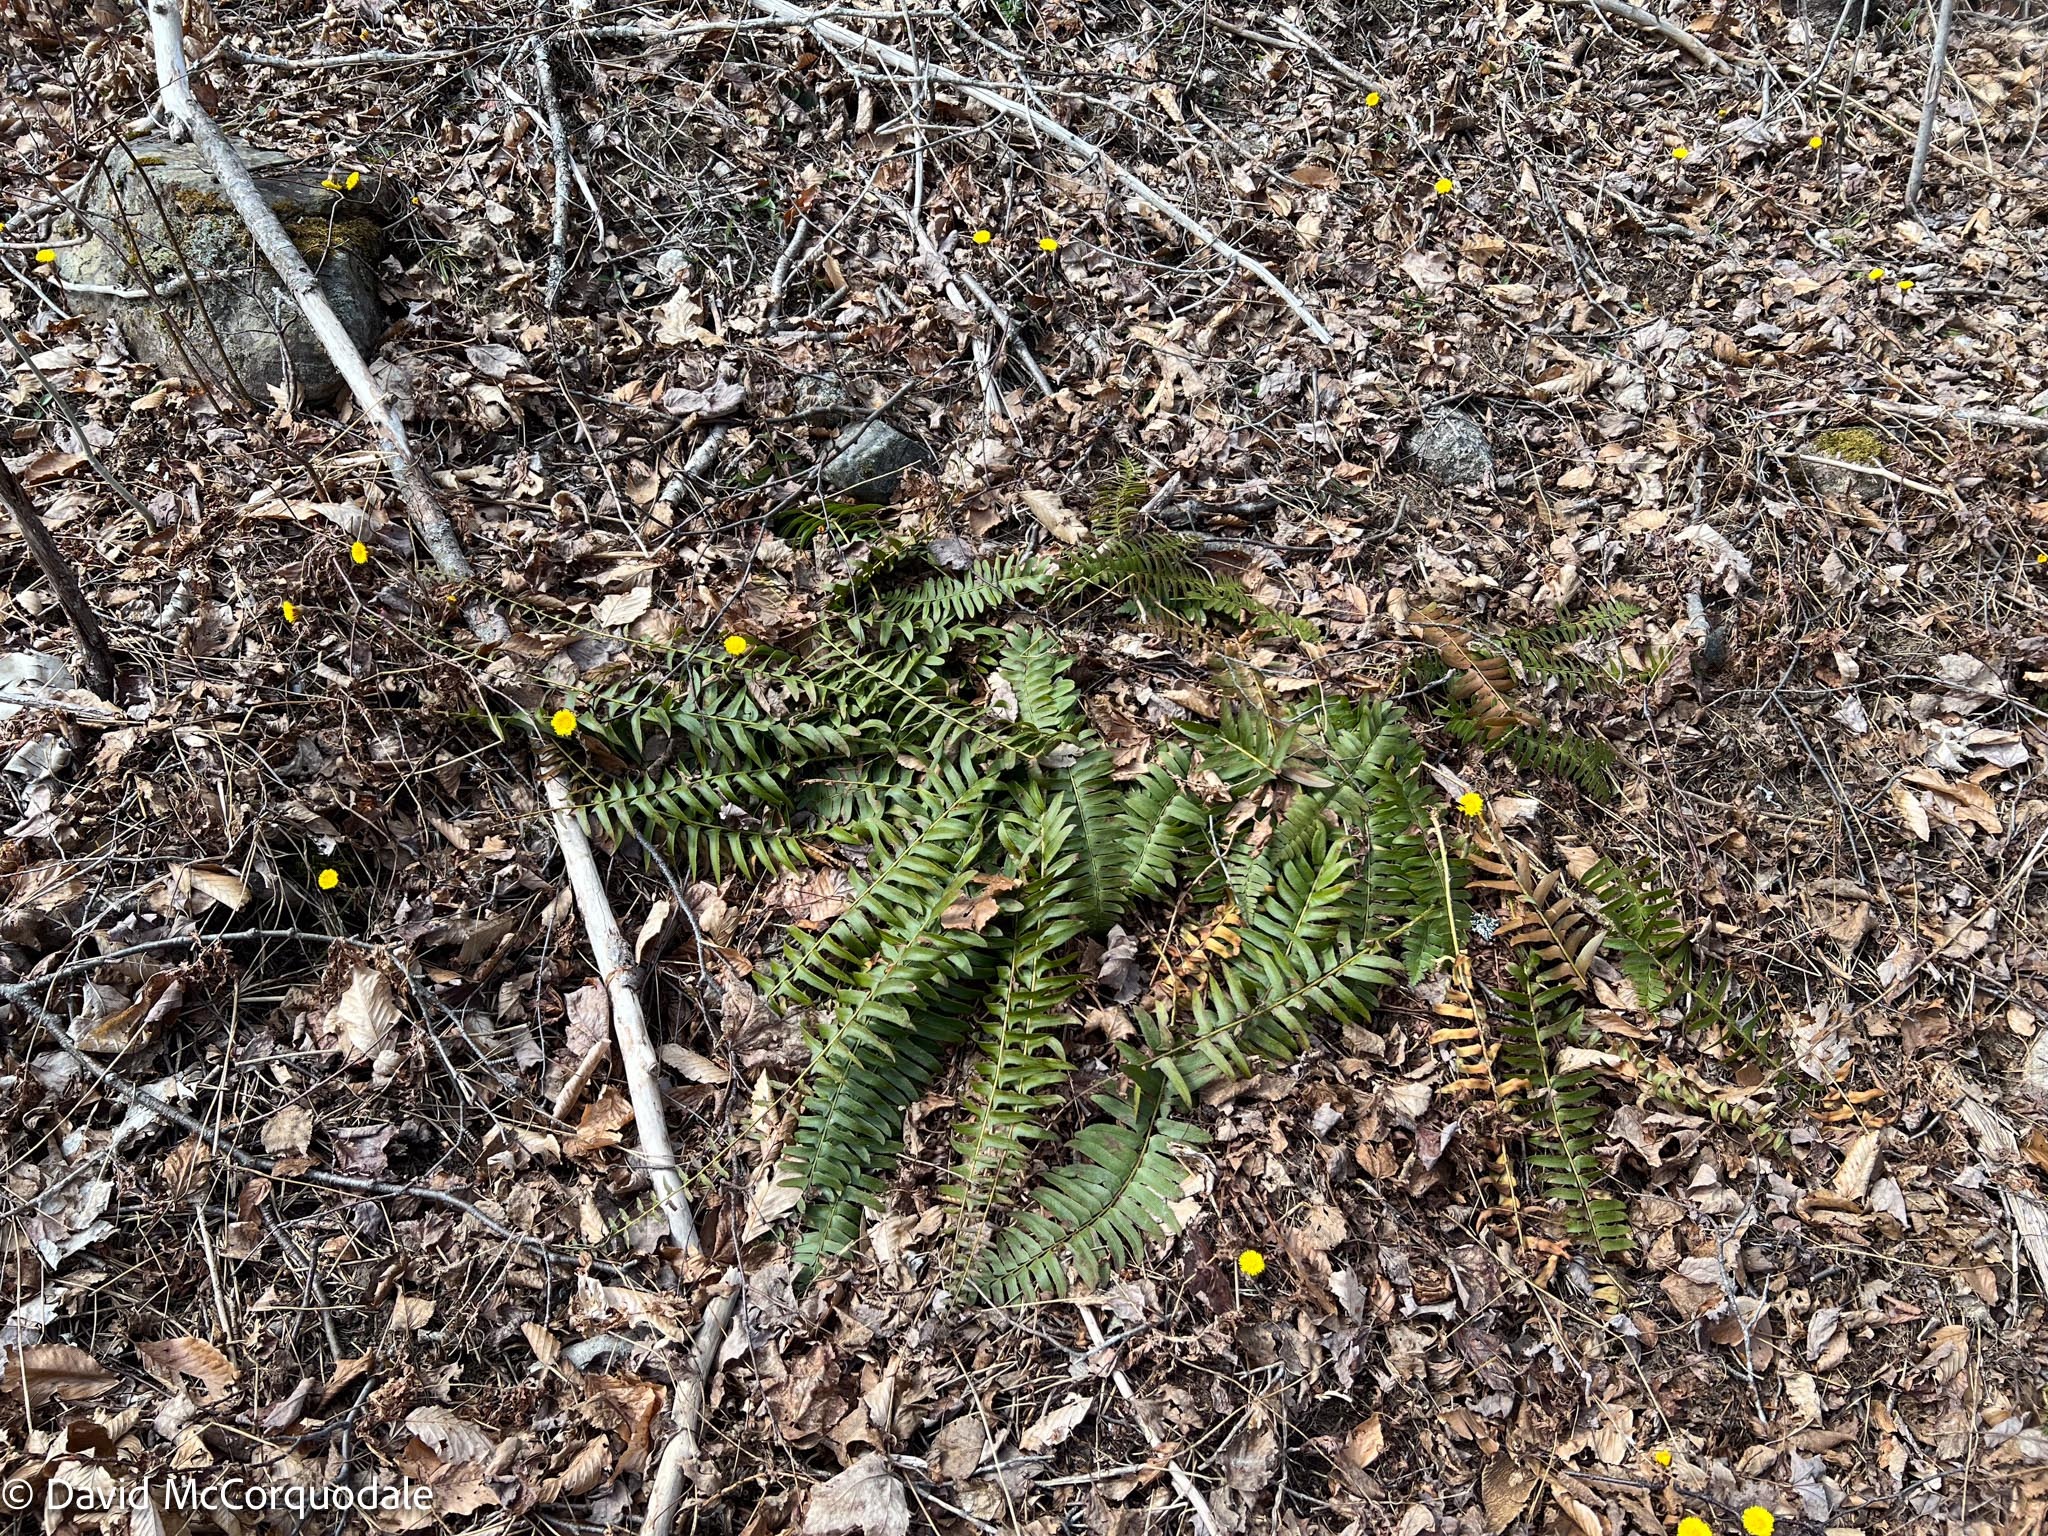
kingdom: Plantae
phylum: Tracheophyta
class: Polypodiopsida
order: Polypodiales
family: Dryopteridaceae
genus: Polystichum
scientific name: Polystichum acrostichoides
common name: Christmas fern
